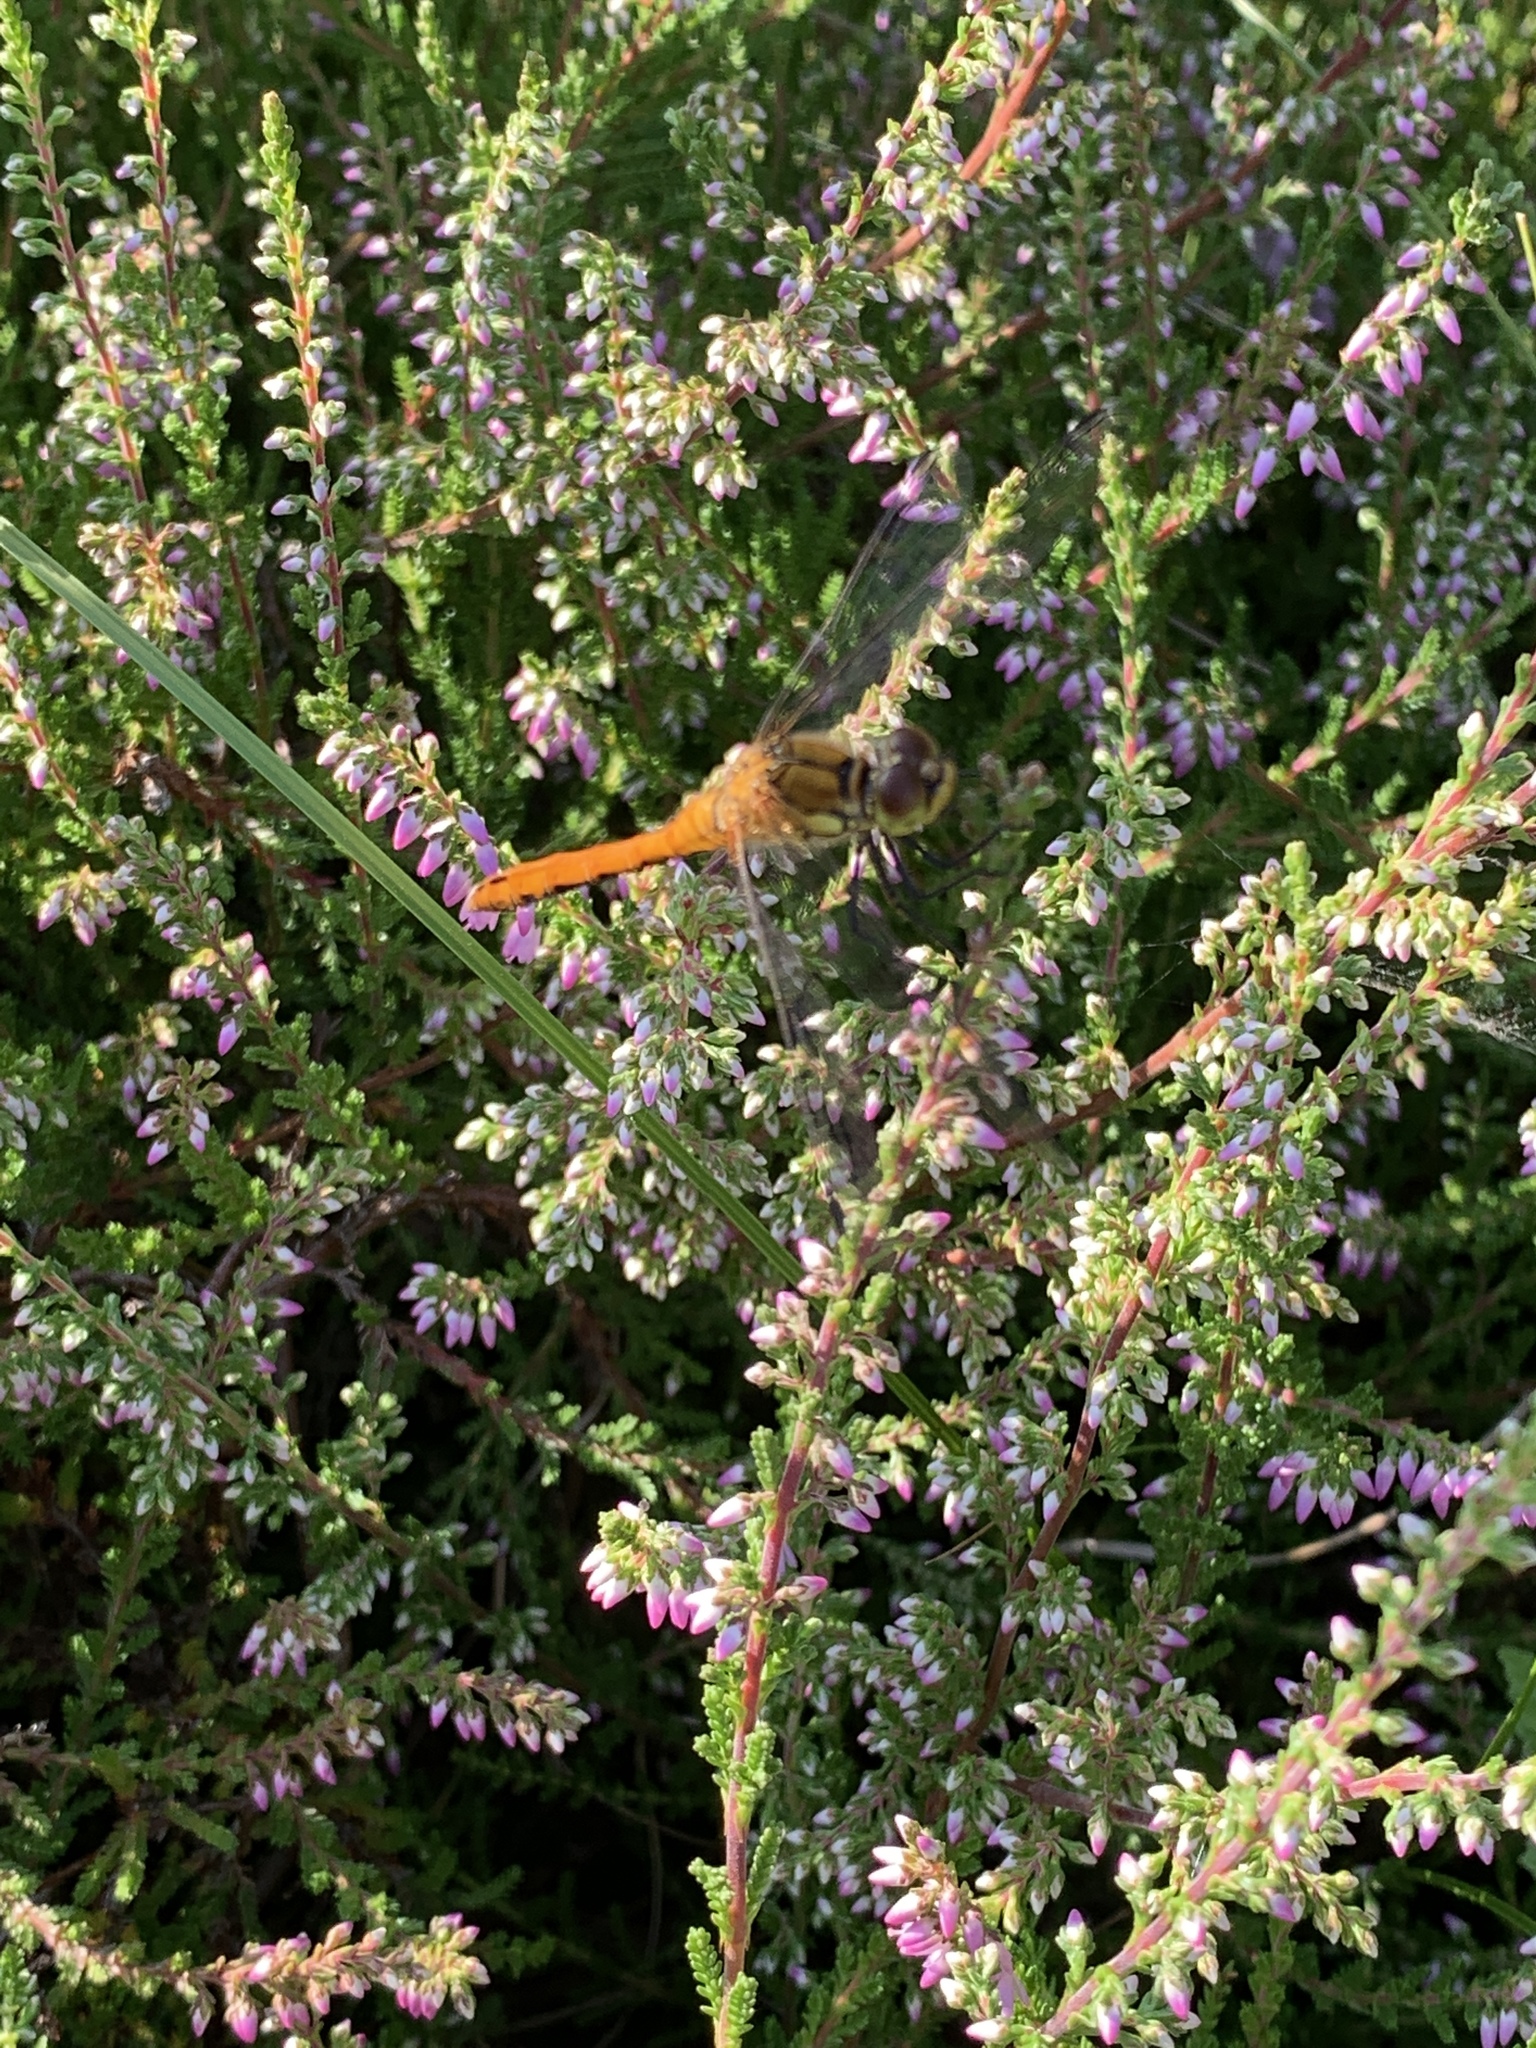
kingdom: Animalia
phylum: Arthropoda
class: Insecta
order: Odonata
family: Libellulidae
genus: Sympetrum
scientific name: Sympetrum sanguineum
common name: Ruddy darter
